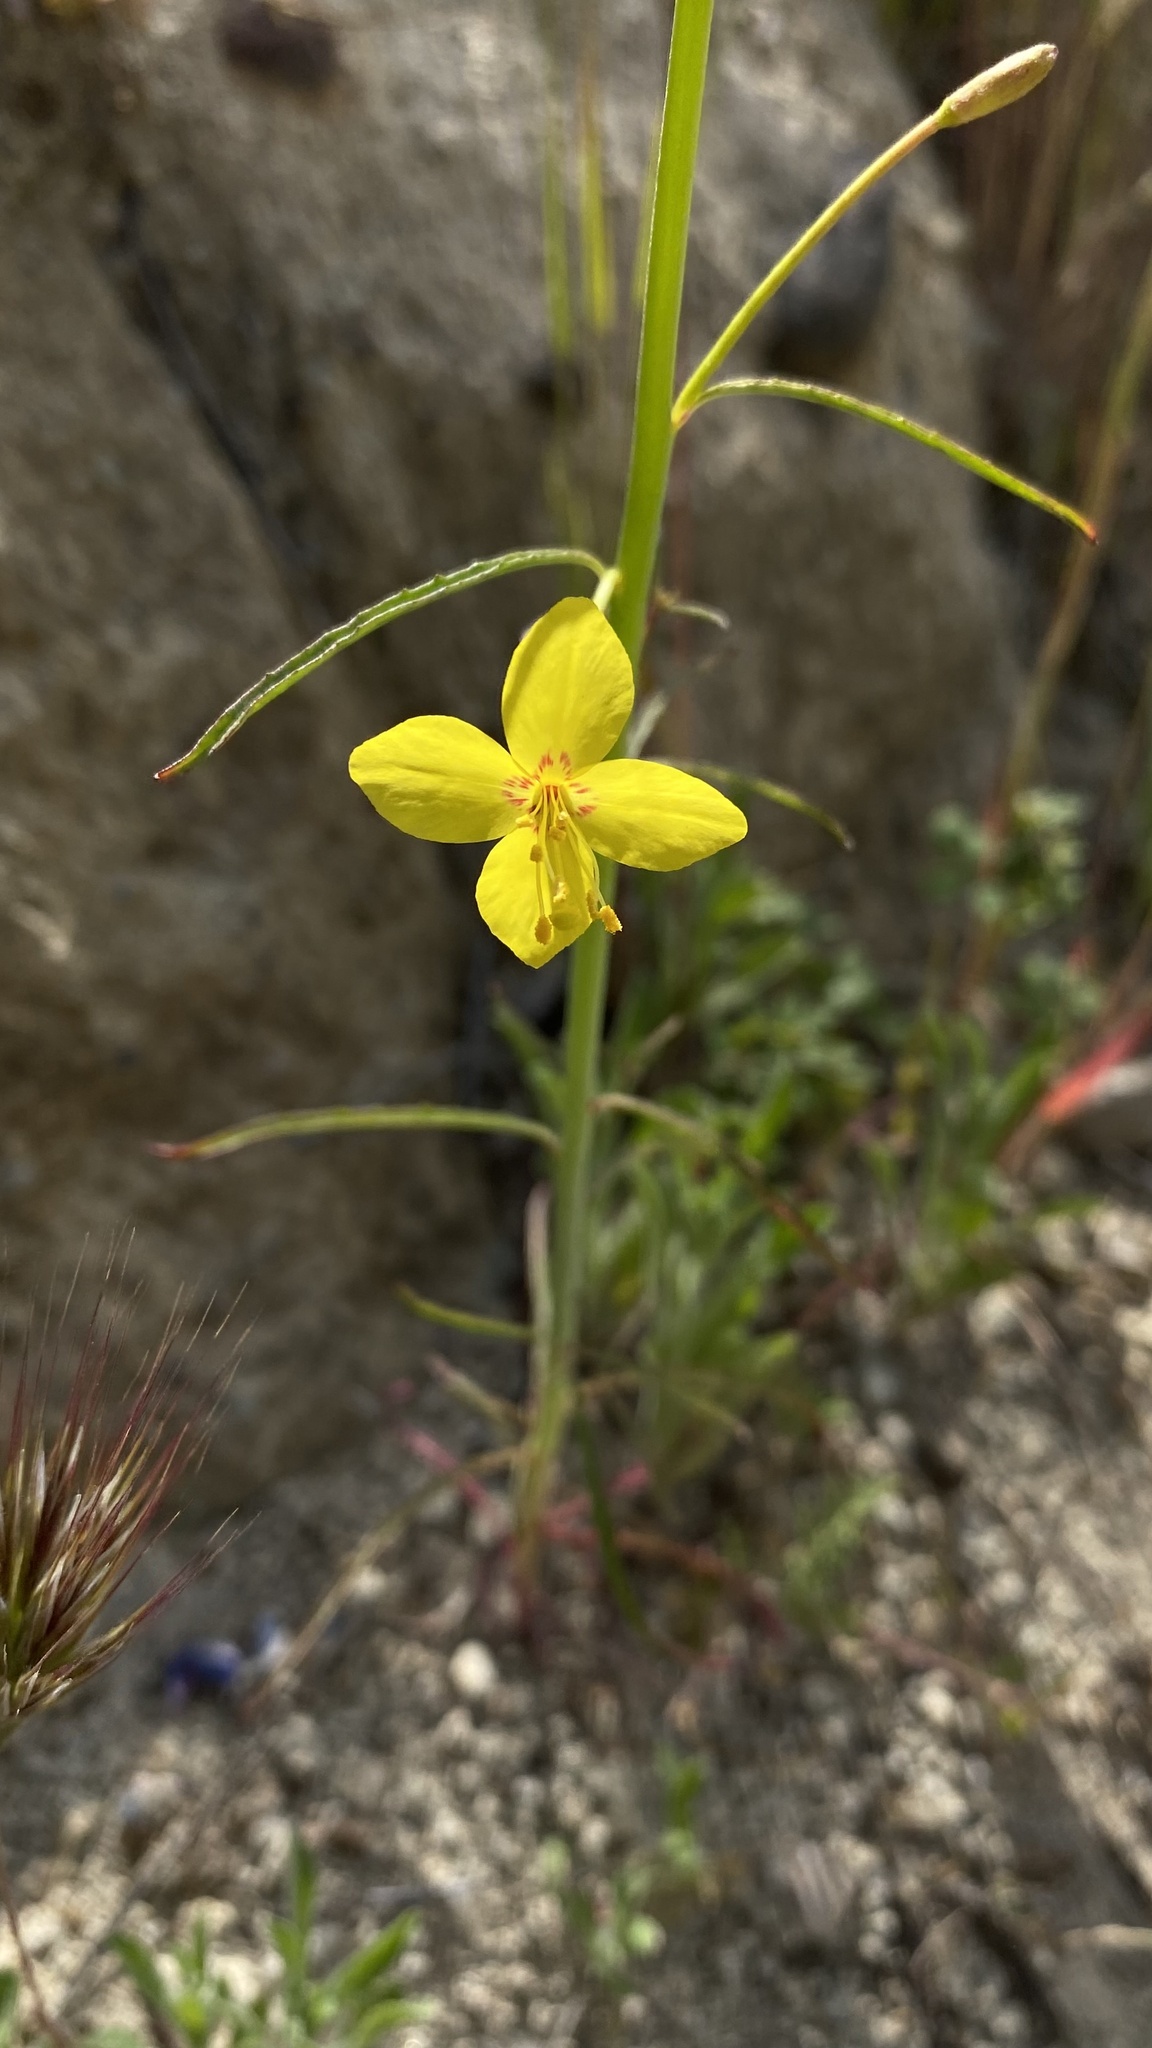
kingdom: Plantae
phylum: Tracheophyta
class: Magnoliopsida
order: Myrtales
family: Onagraceae
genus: Eulobus
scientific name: Eulobus californicus
